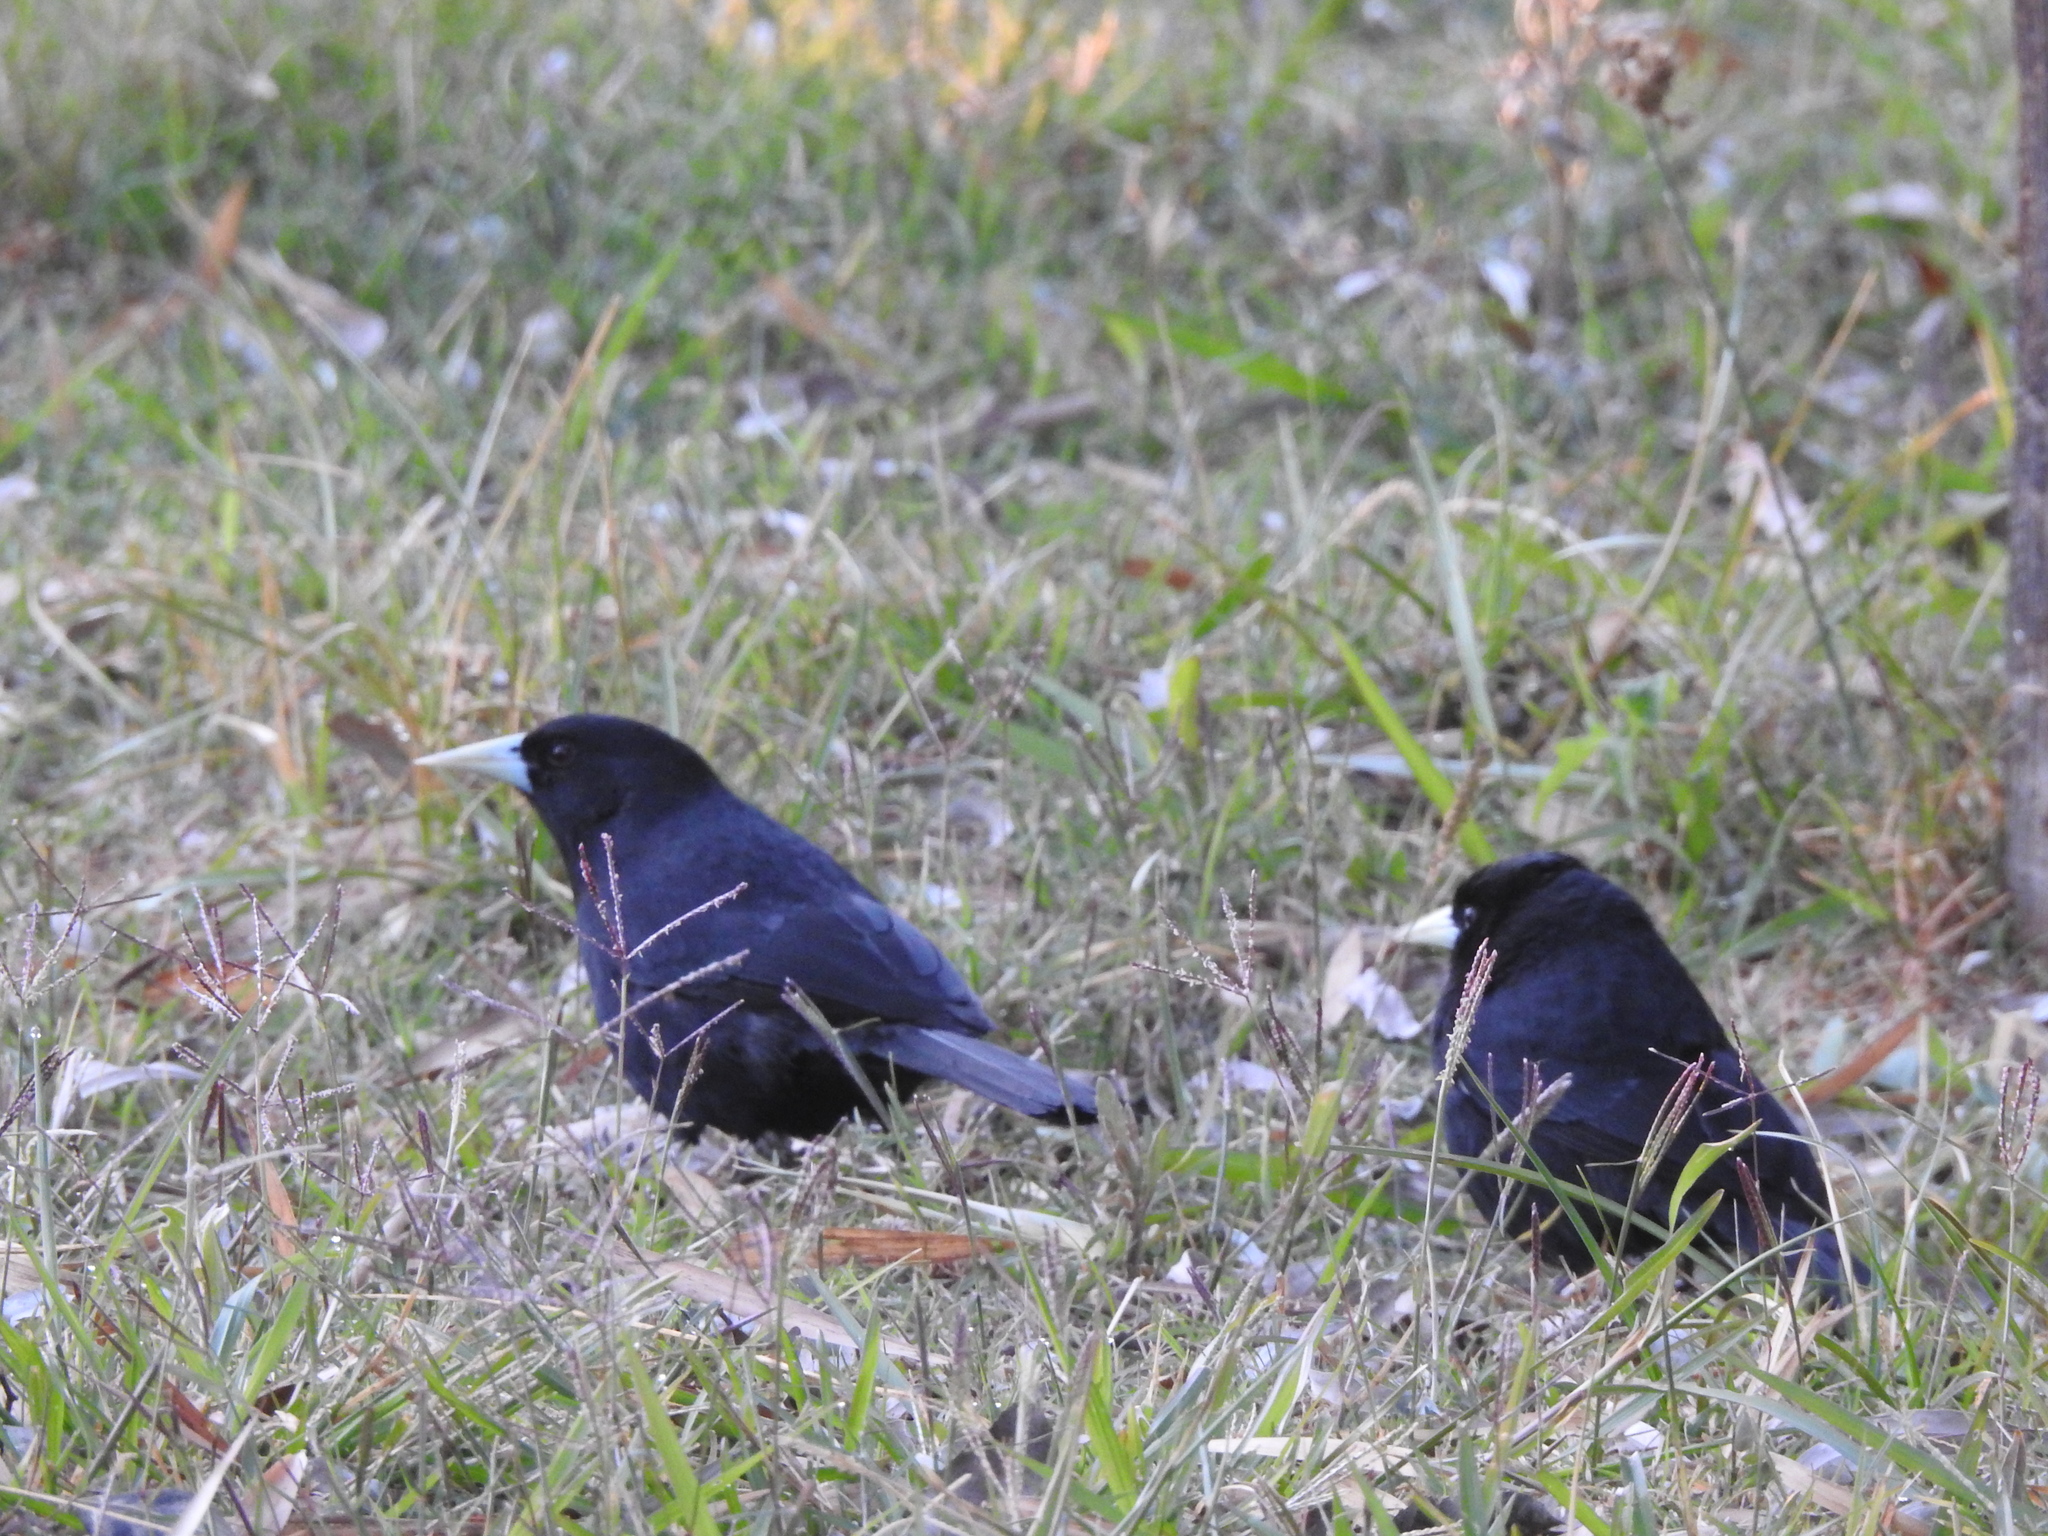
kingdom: Animalia
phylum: Chordata
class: Aves
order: Passeriformes
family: Icteridae
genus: Cacicus
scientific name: Cacicus solitarius
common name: Solitary cacique
